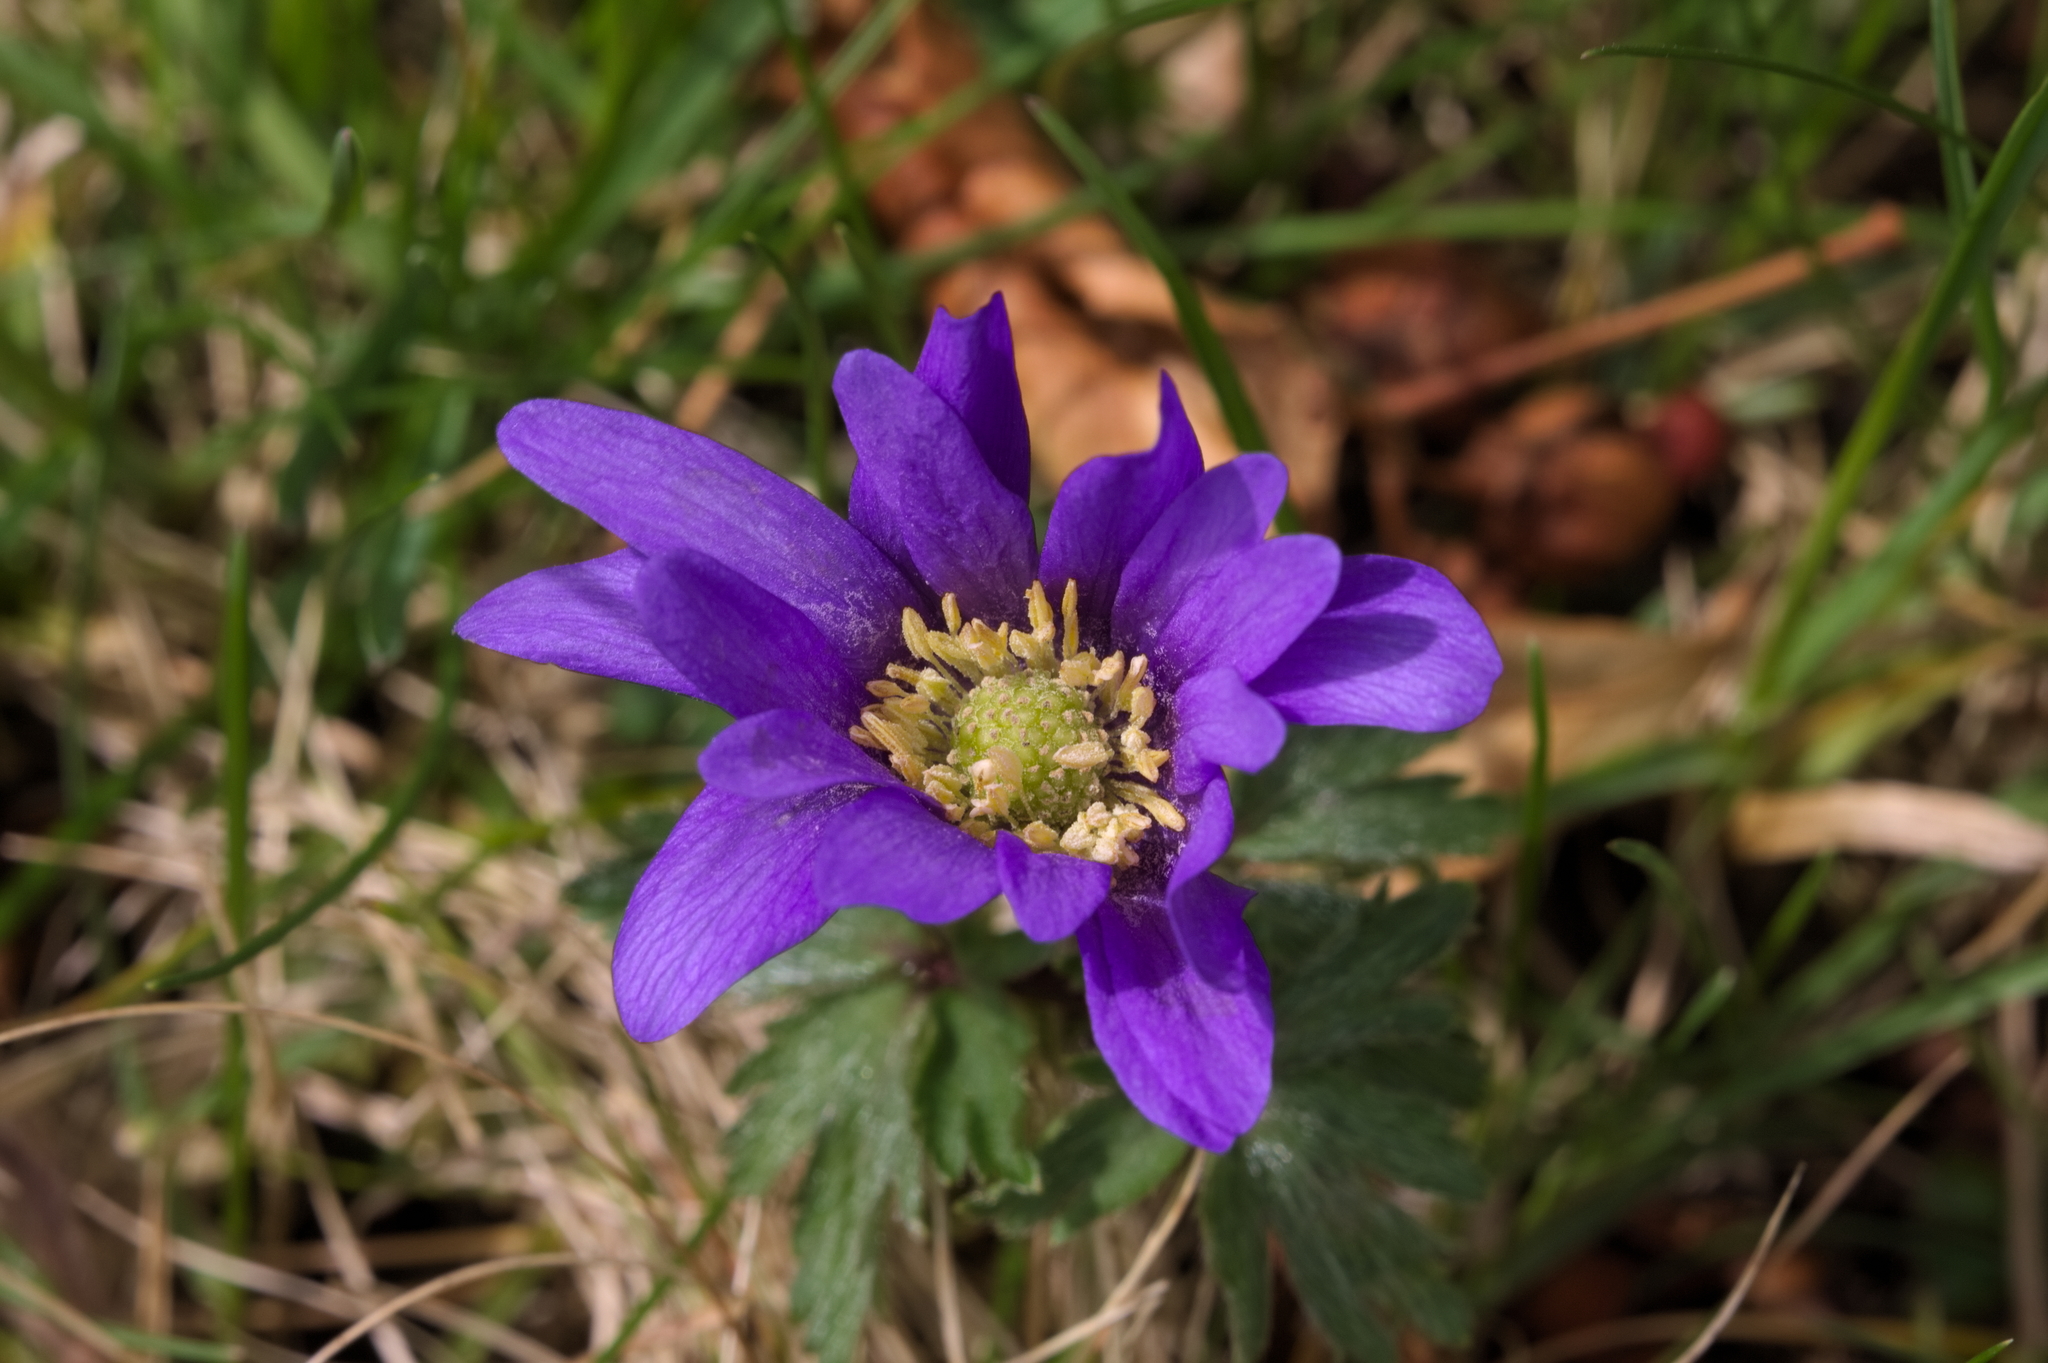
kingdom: Plantae
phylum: Tracheophyta
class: Magnoliopsida
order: Ranunculales
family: Ranunculaceae
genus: Anemone
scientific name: Anemone blanda
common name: Balkan anemone
